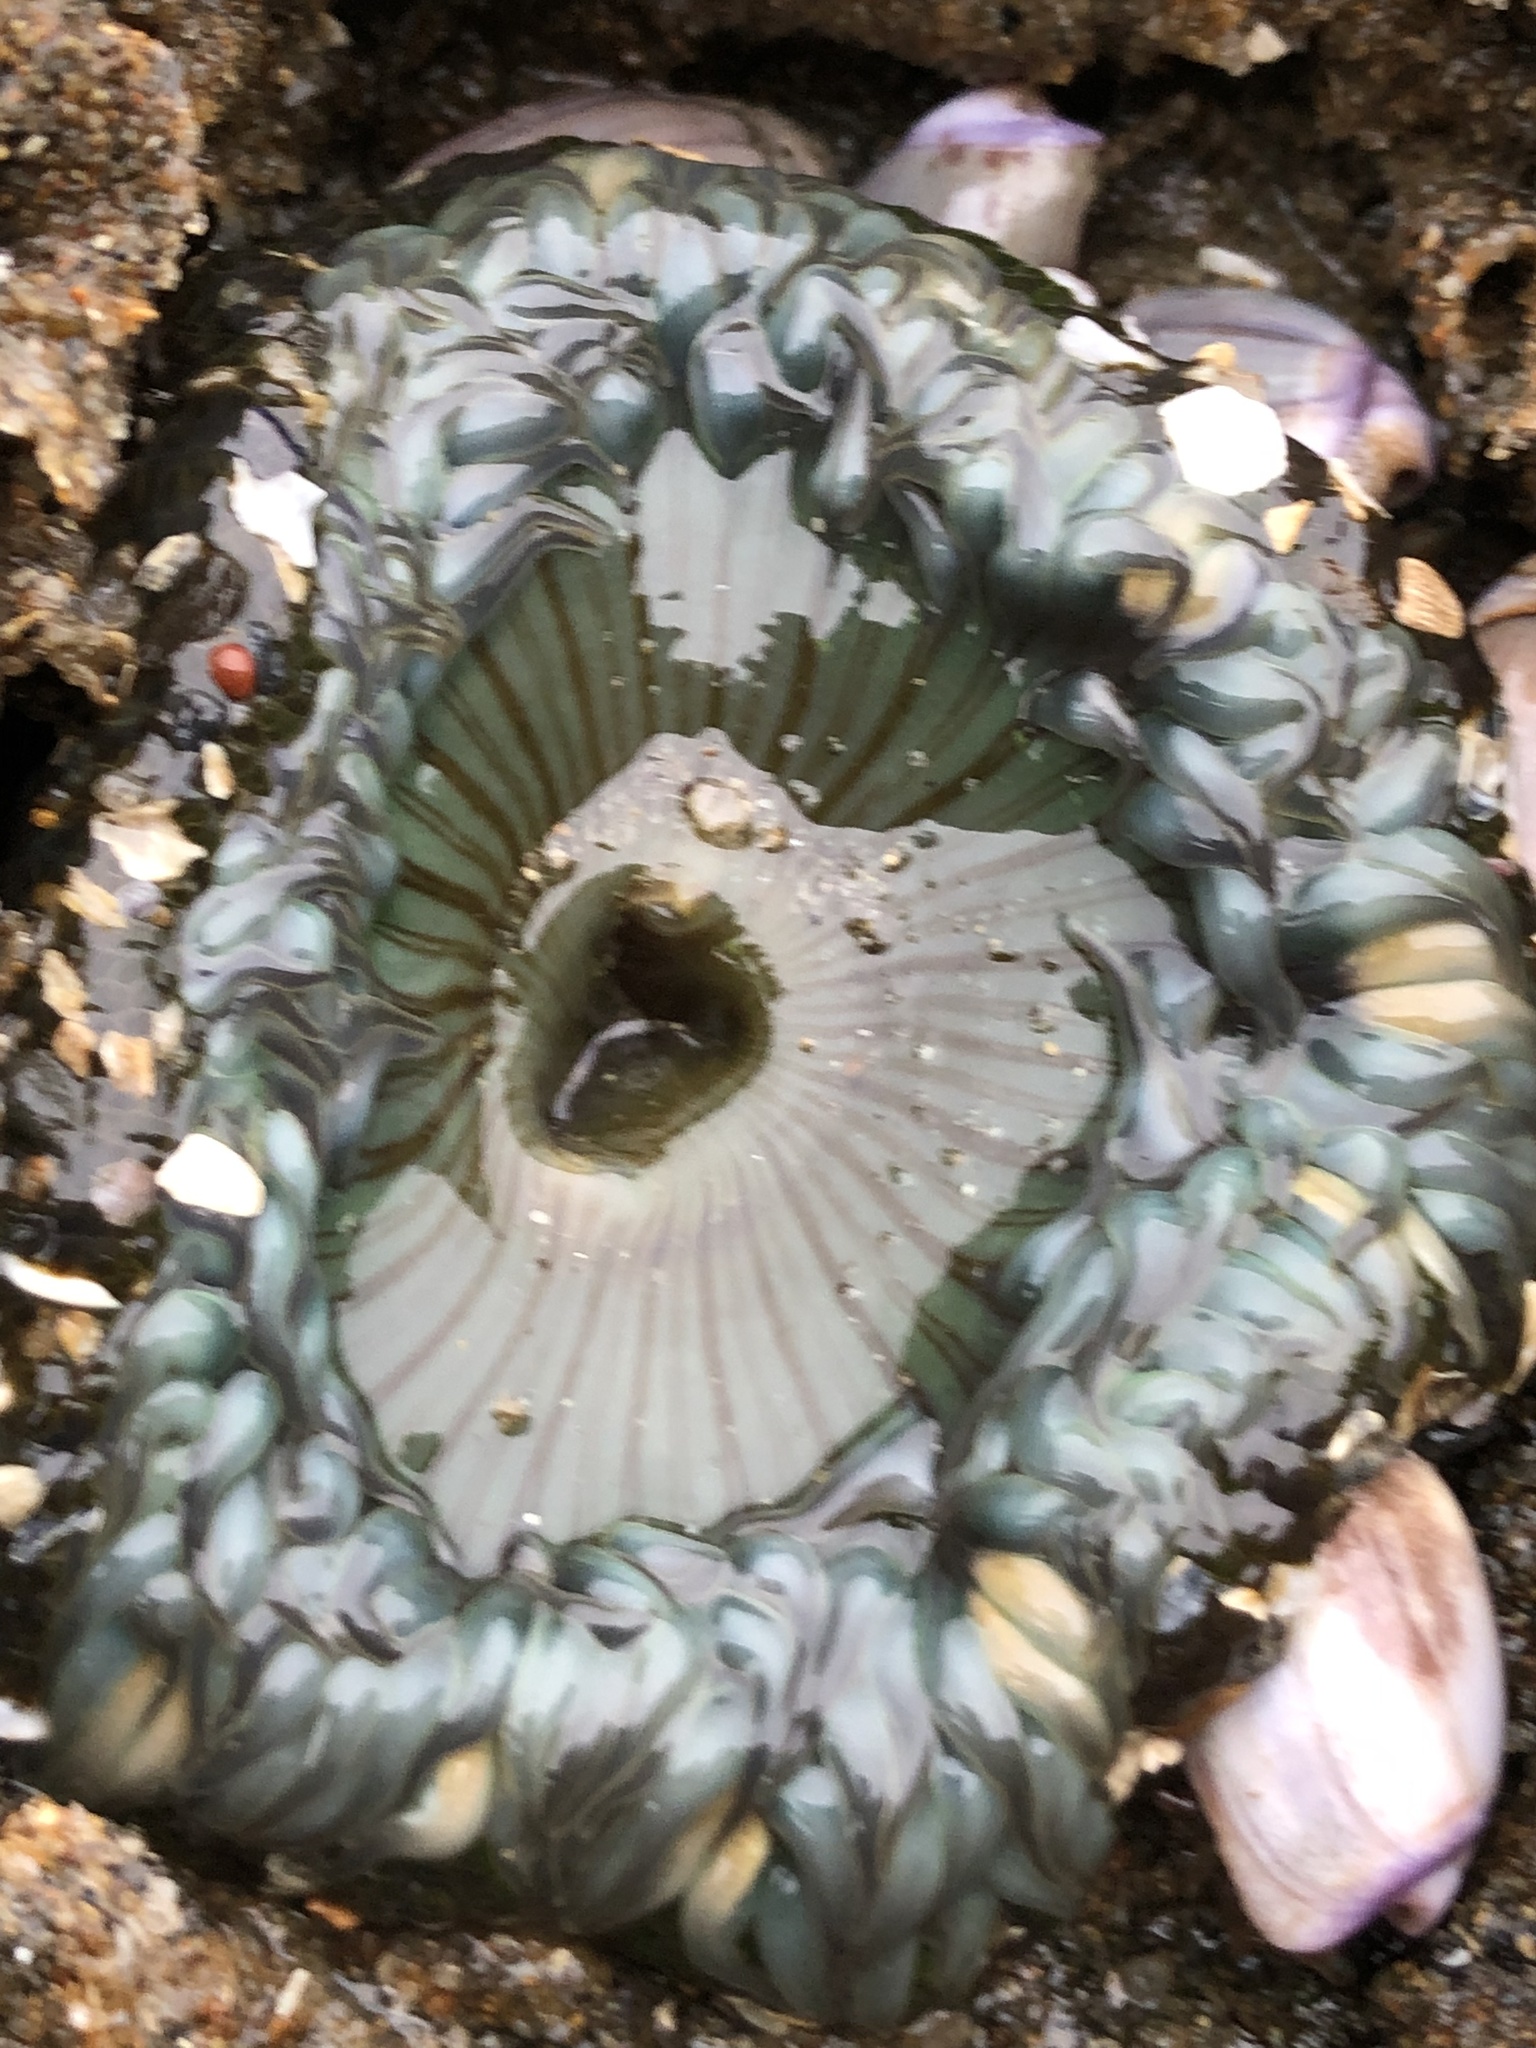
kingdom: Animalia
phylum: Cnidaria
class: Anthozoa
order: Actiniaria
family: Actiniidae
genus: Anthopleura
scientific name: Anthopleura sola
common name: Sun anemone
